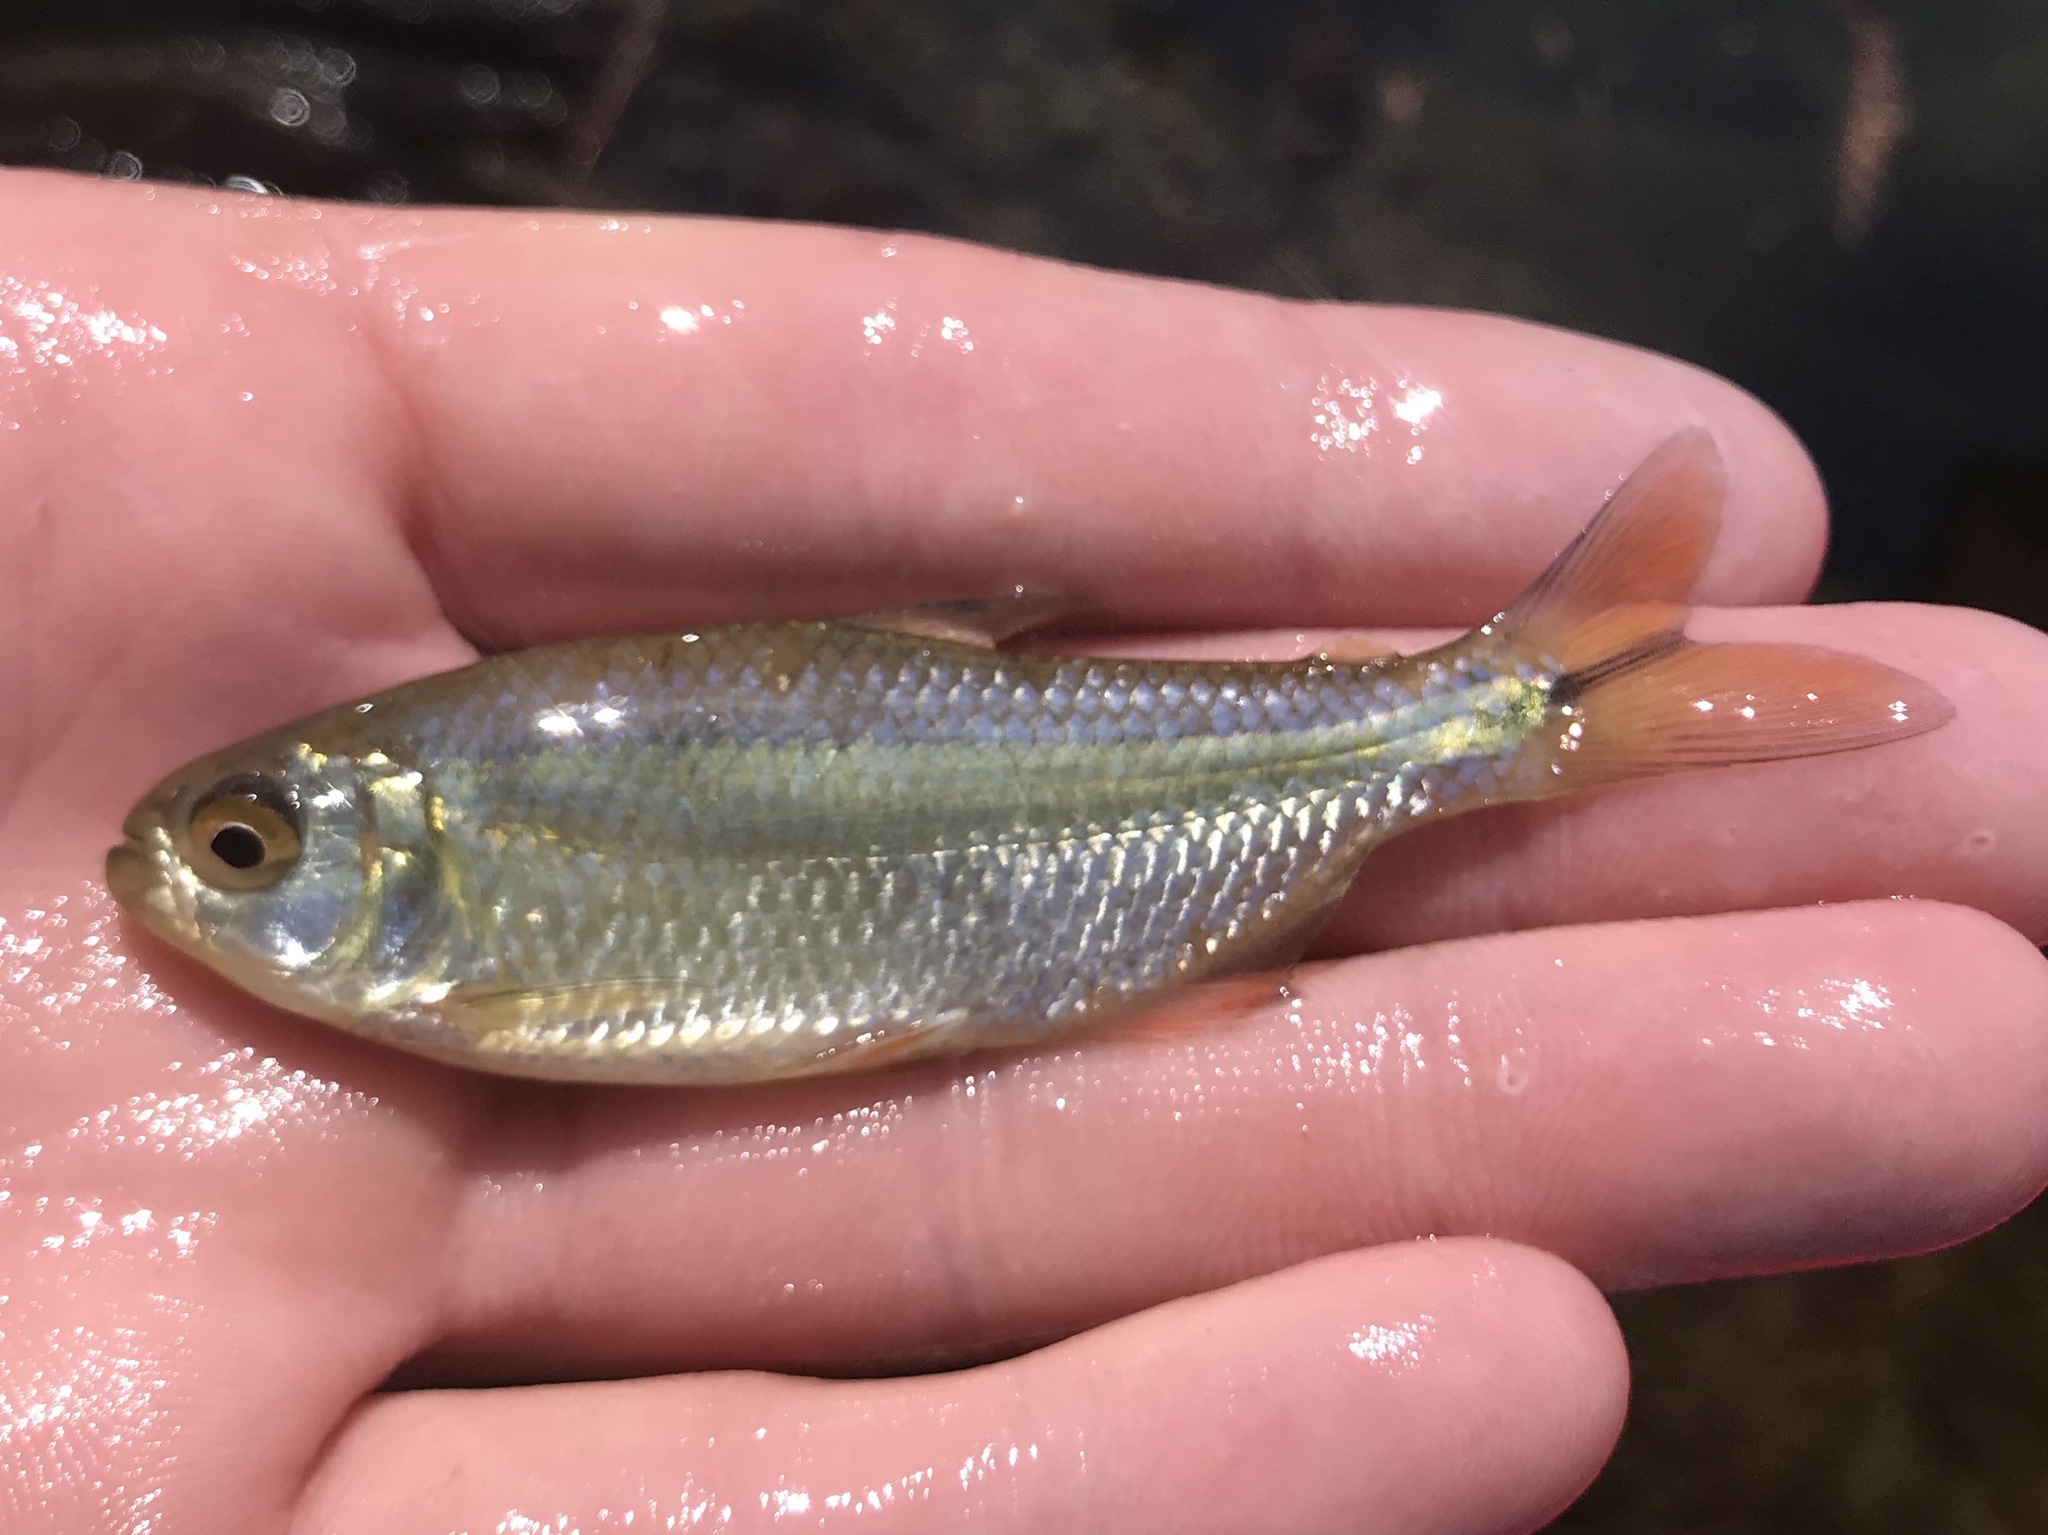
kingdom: Animalia
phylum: Chordata
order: Characiformes
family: Characidae
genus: Astyanax
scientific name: Astyanax mexicanus
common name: Mexican tetra
